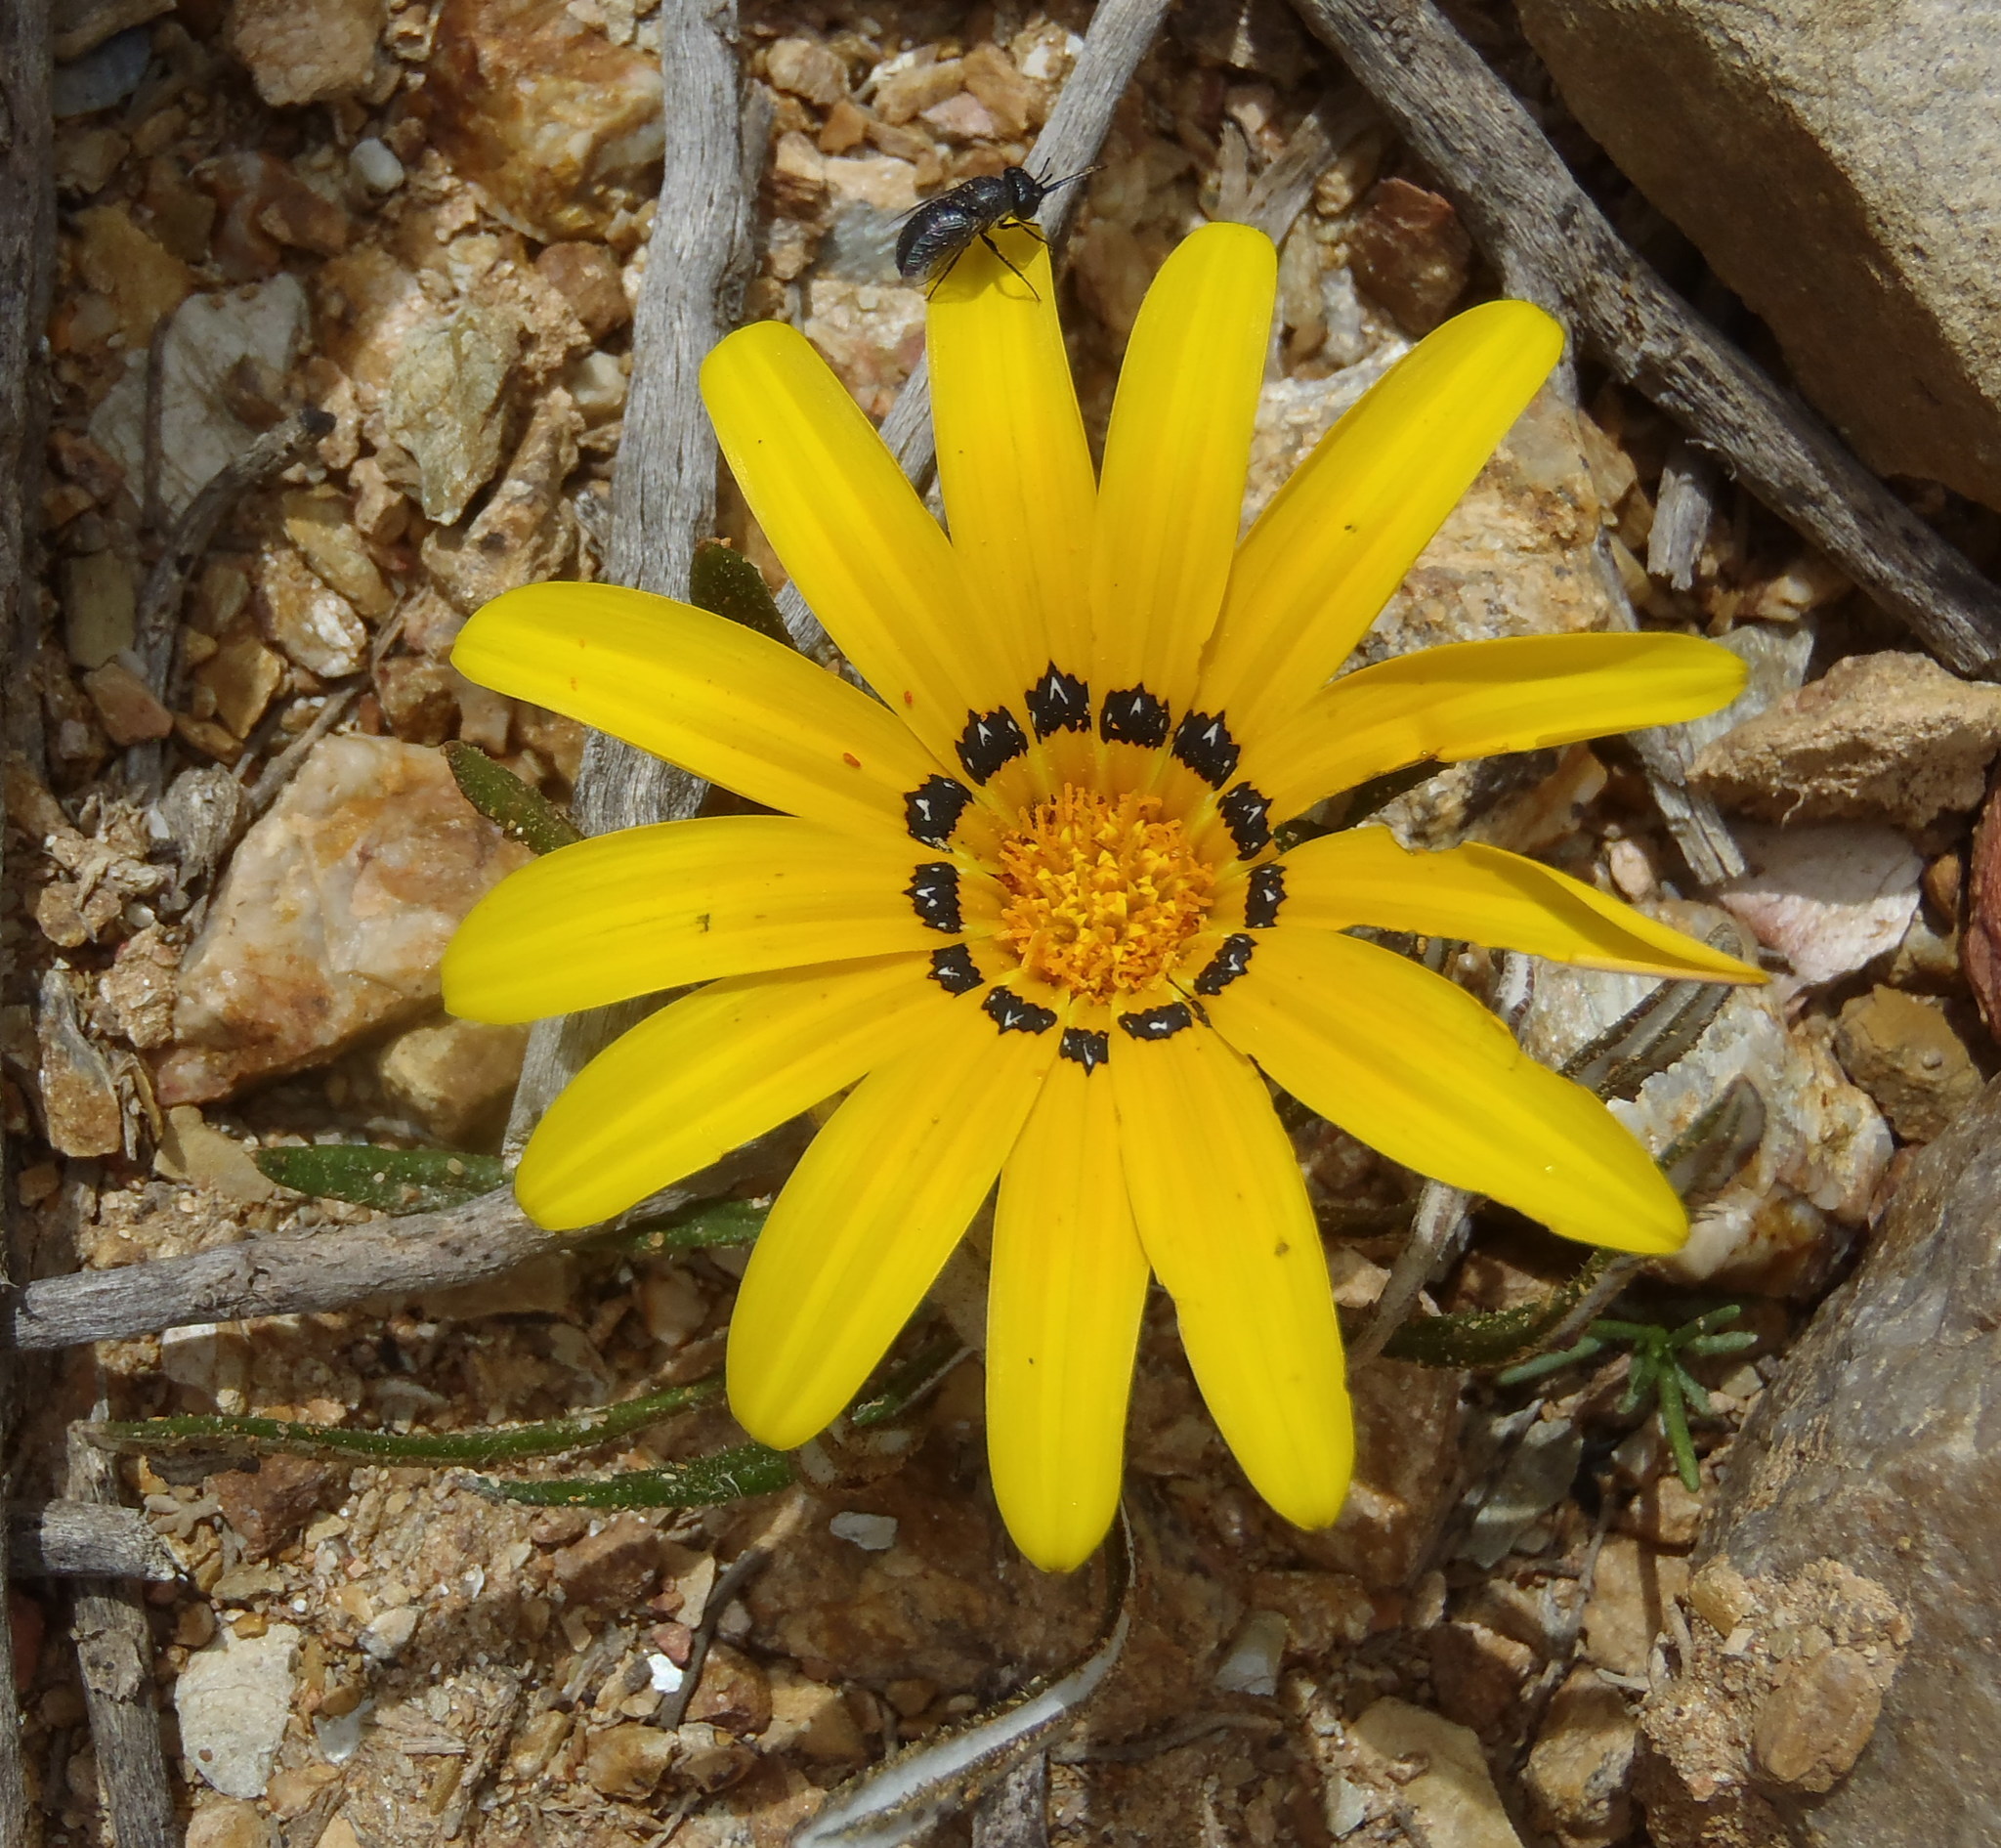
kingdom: Plantae
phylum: Tracheophyta
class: Magnoliopsida
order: Asterales
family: Asteraceae
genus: Gazania
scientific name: Gazania krebsiana
